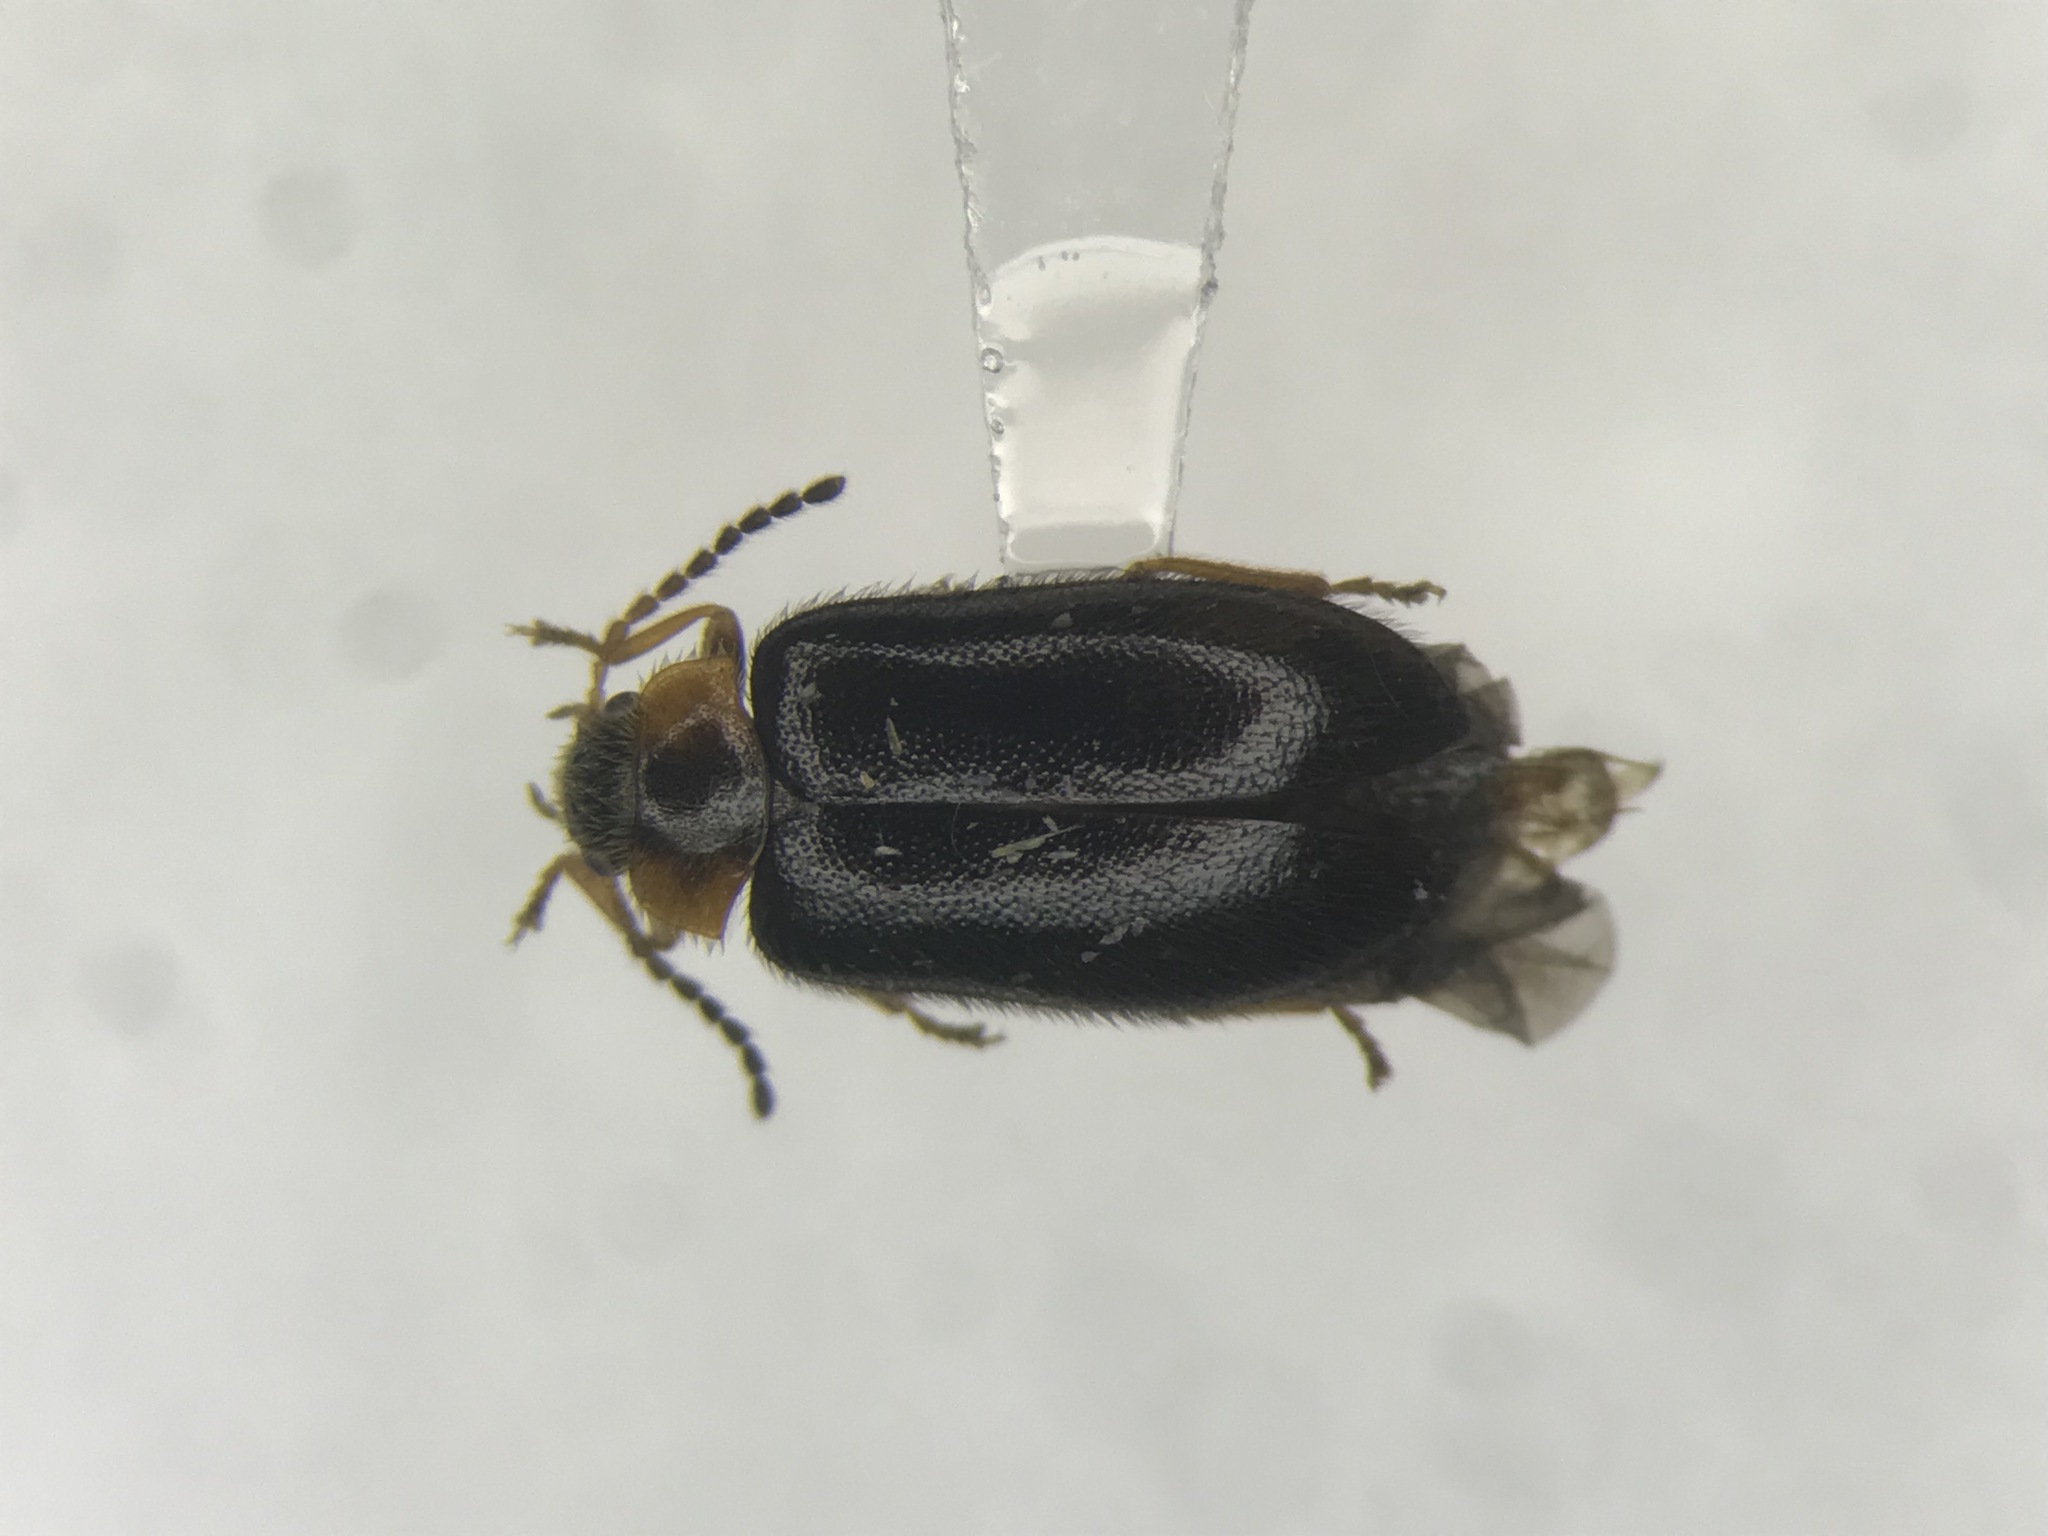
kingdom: Animalia
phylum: Arthropoda
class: Insecta
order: Coleoptera
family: Scirtidae
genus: Cyphon
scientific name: Cyphon ruficollis
